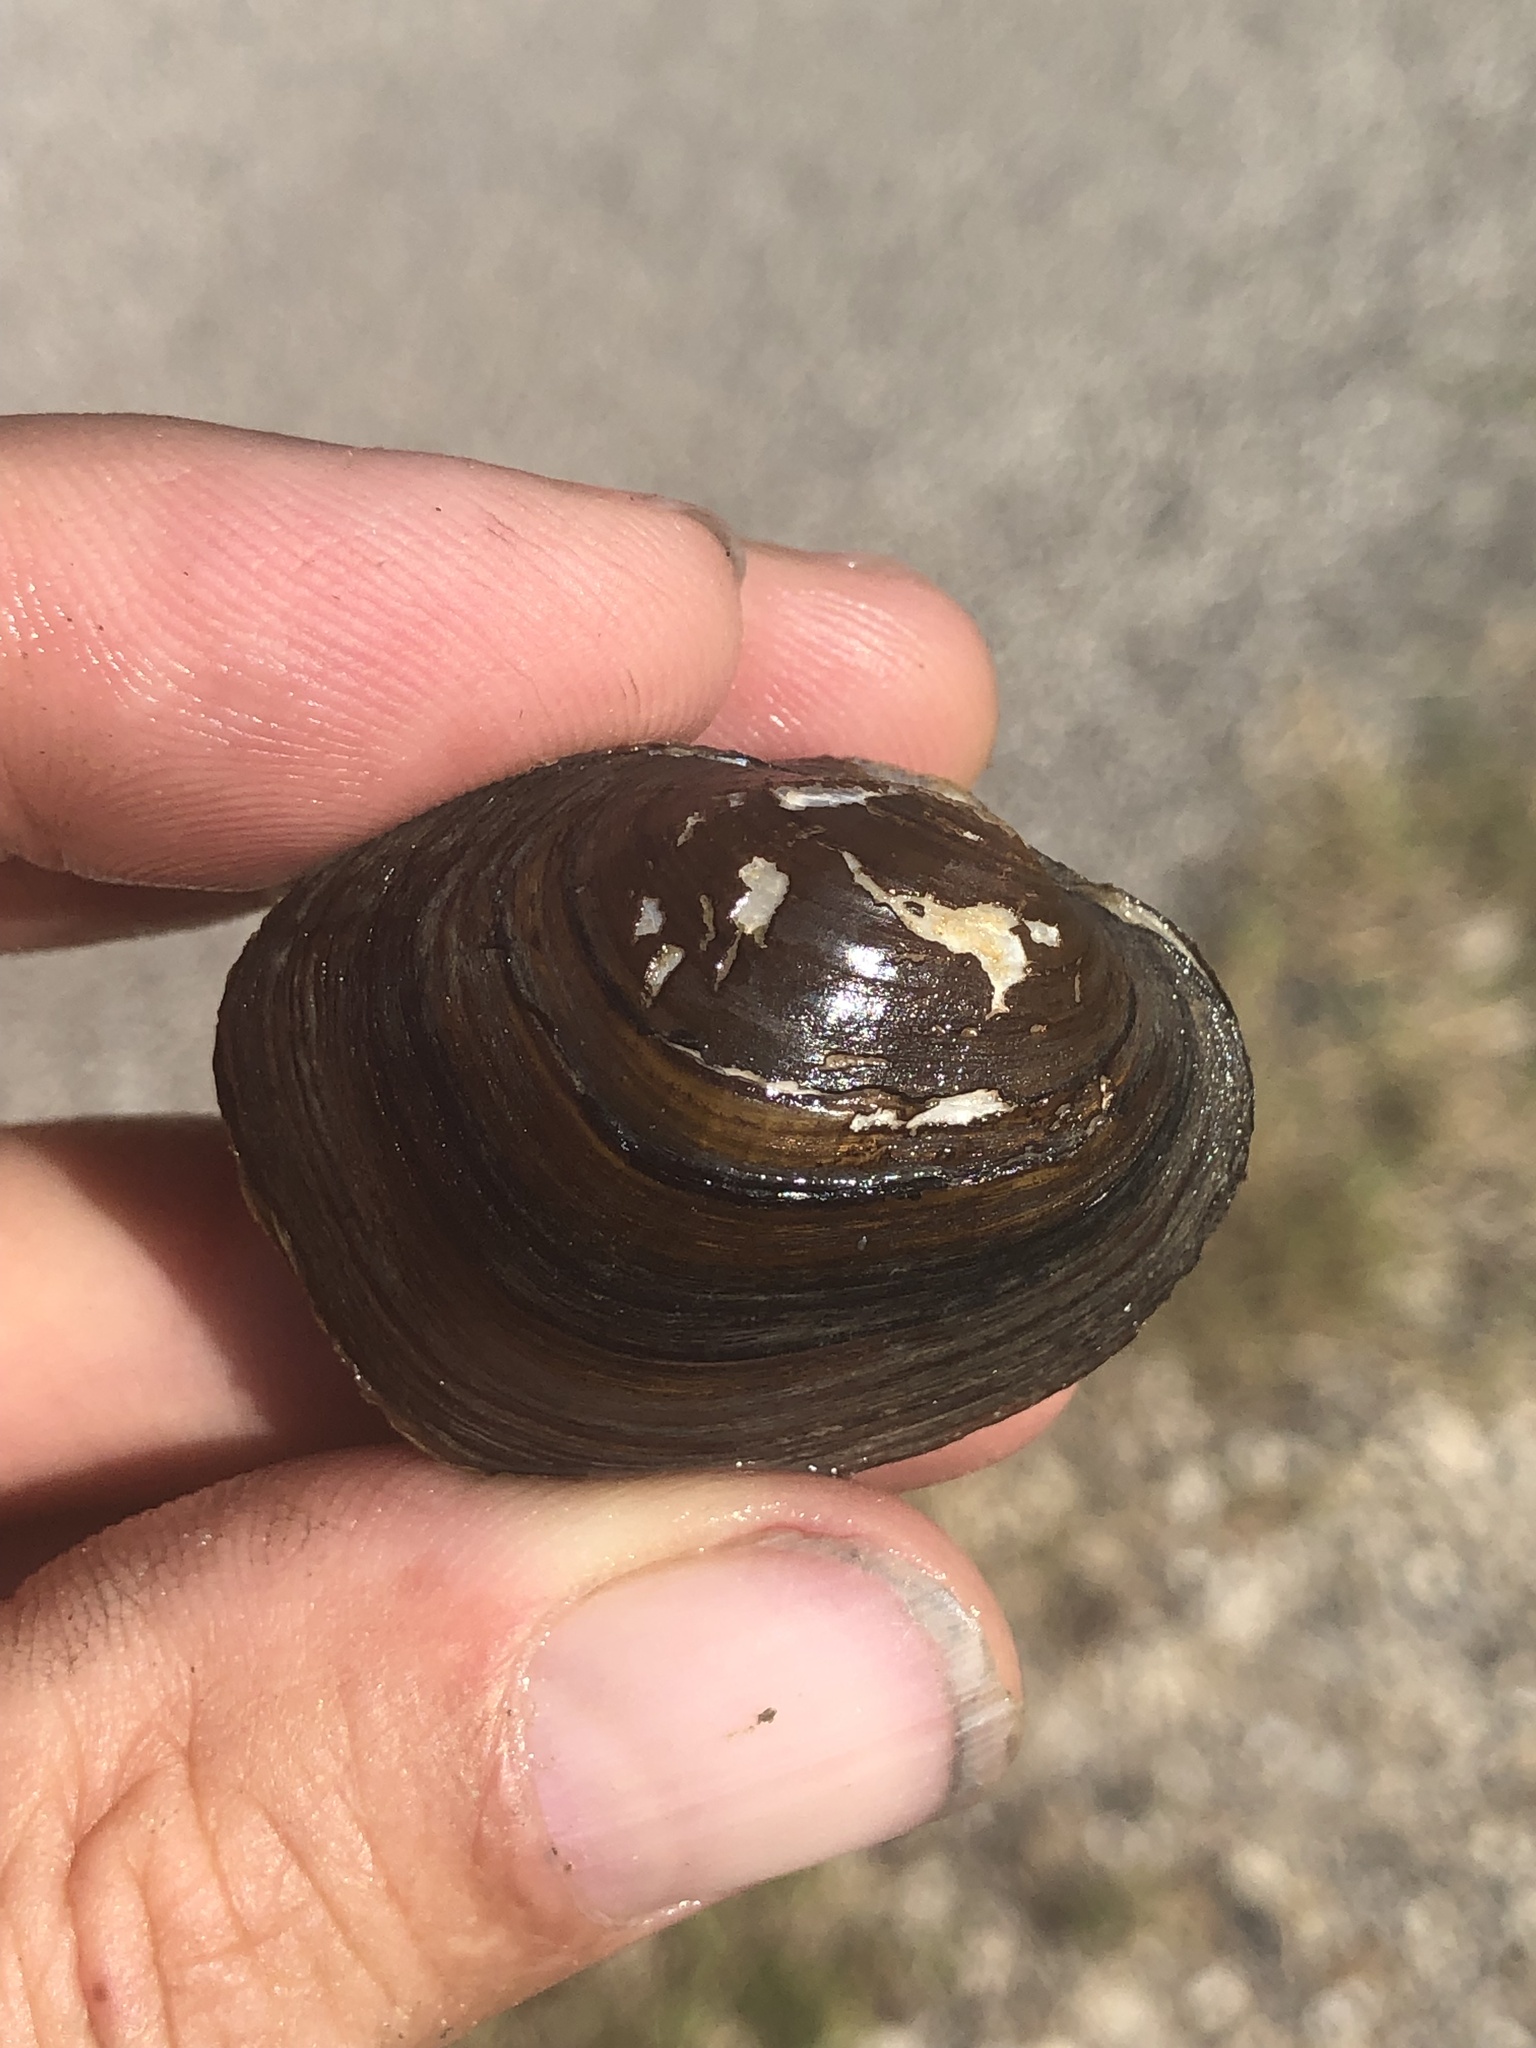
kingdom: Animalia
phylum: Mollusca
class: Bivalvia
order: Unionida
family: Unionidae
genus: Toxolasma
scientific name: Toxolasma texasiense
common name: Texas lilliput
